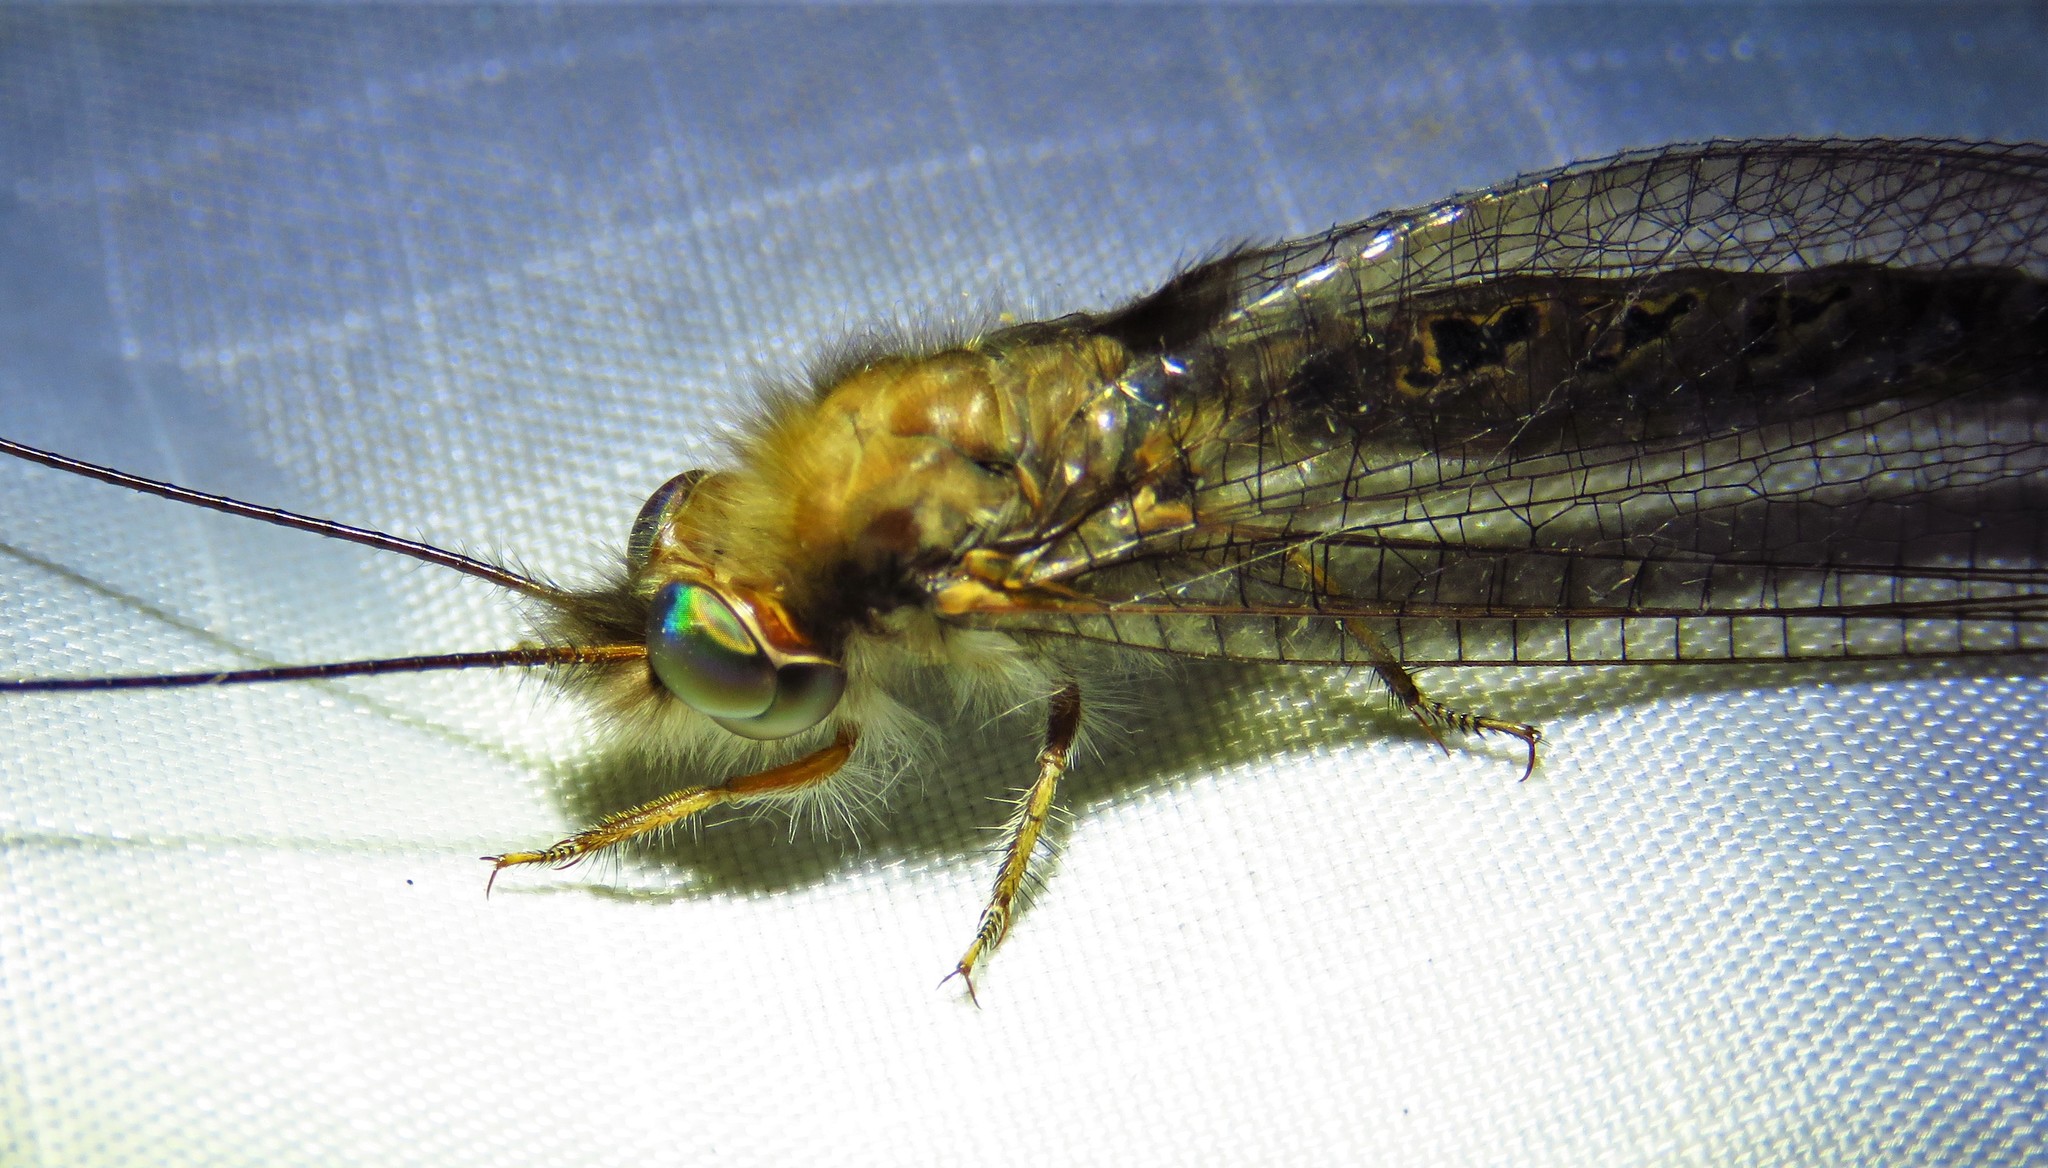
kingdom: Animalia
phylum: Arthropoda
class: Insecta
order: Neuroptera
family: Ascalaphidae
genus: Ululodes
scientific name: Ululodes macleayanus
